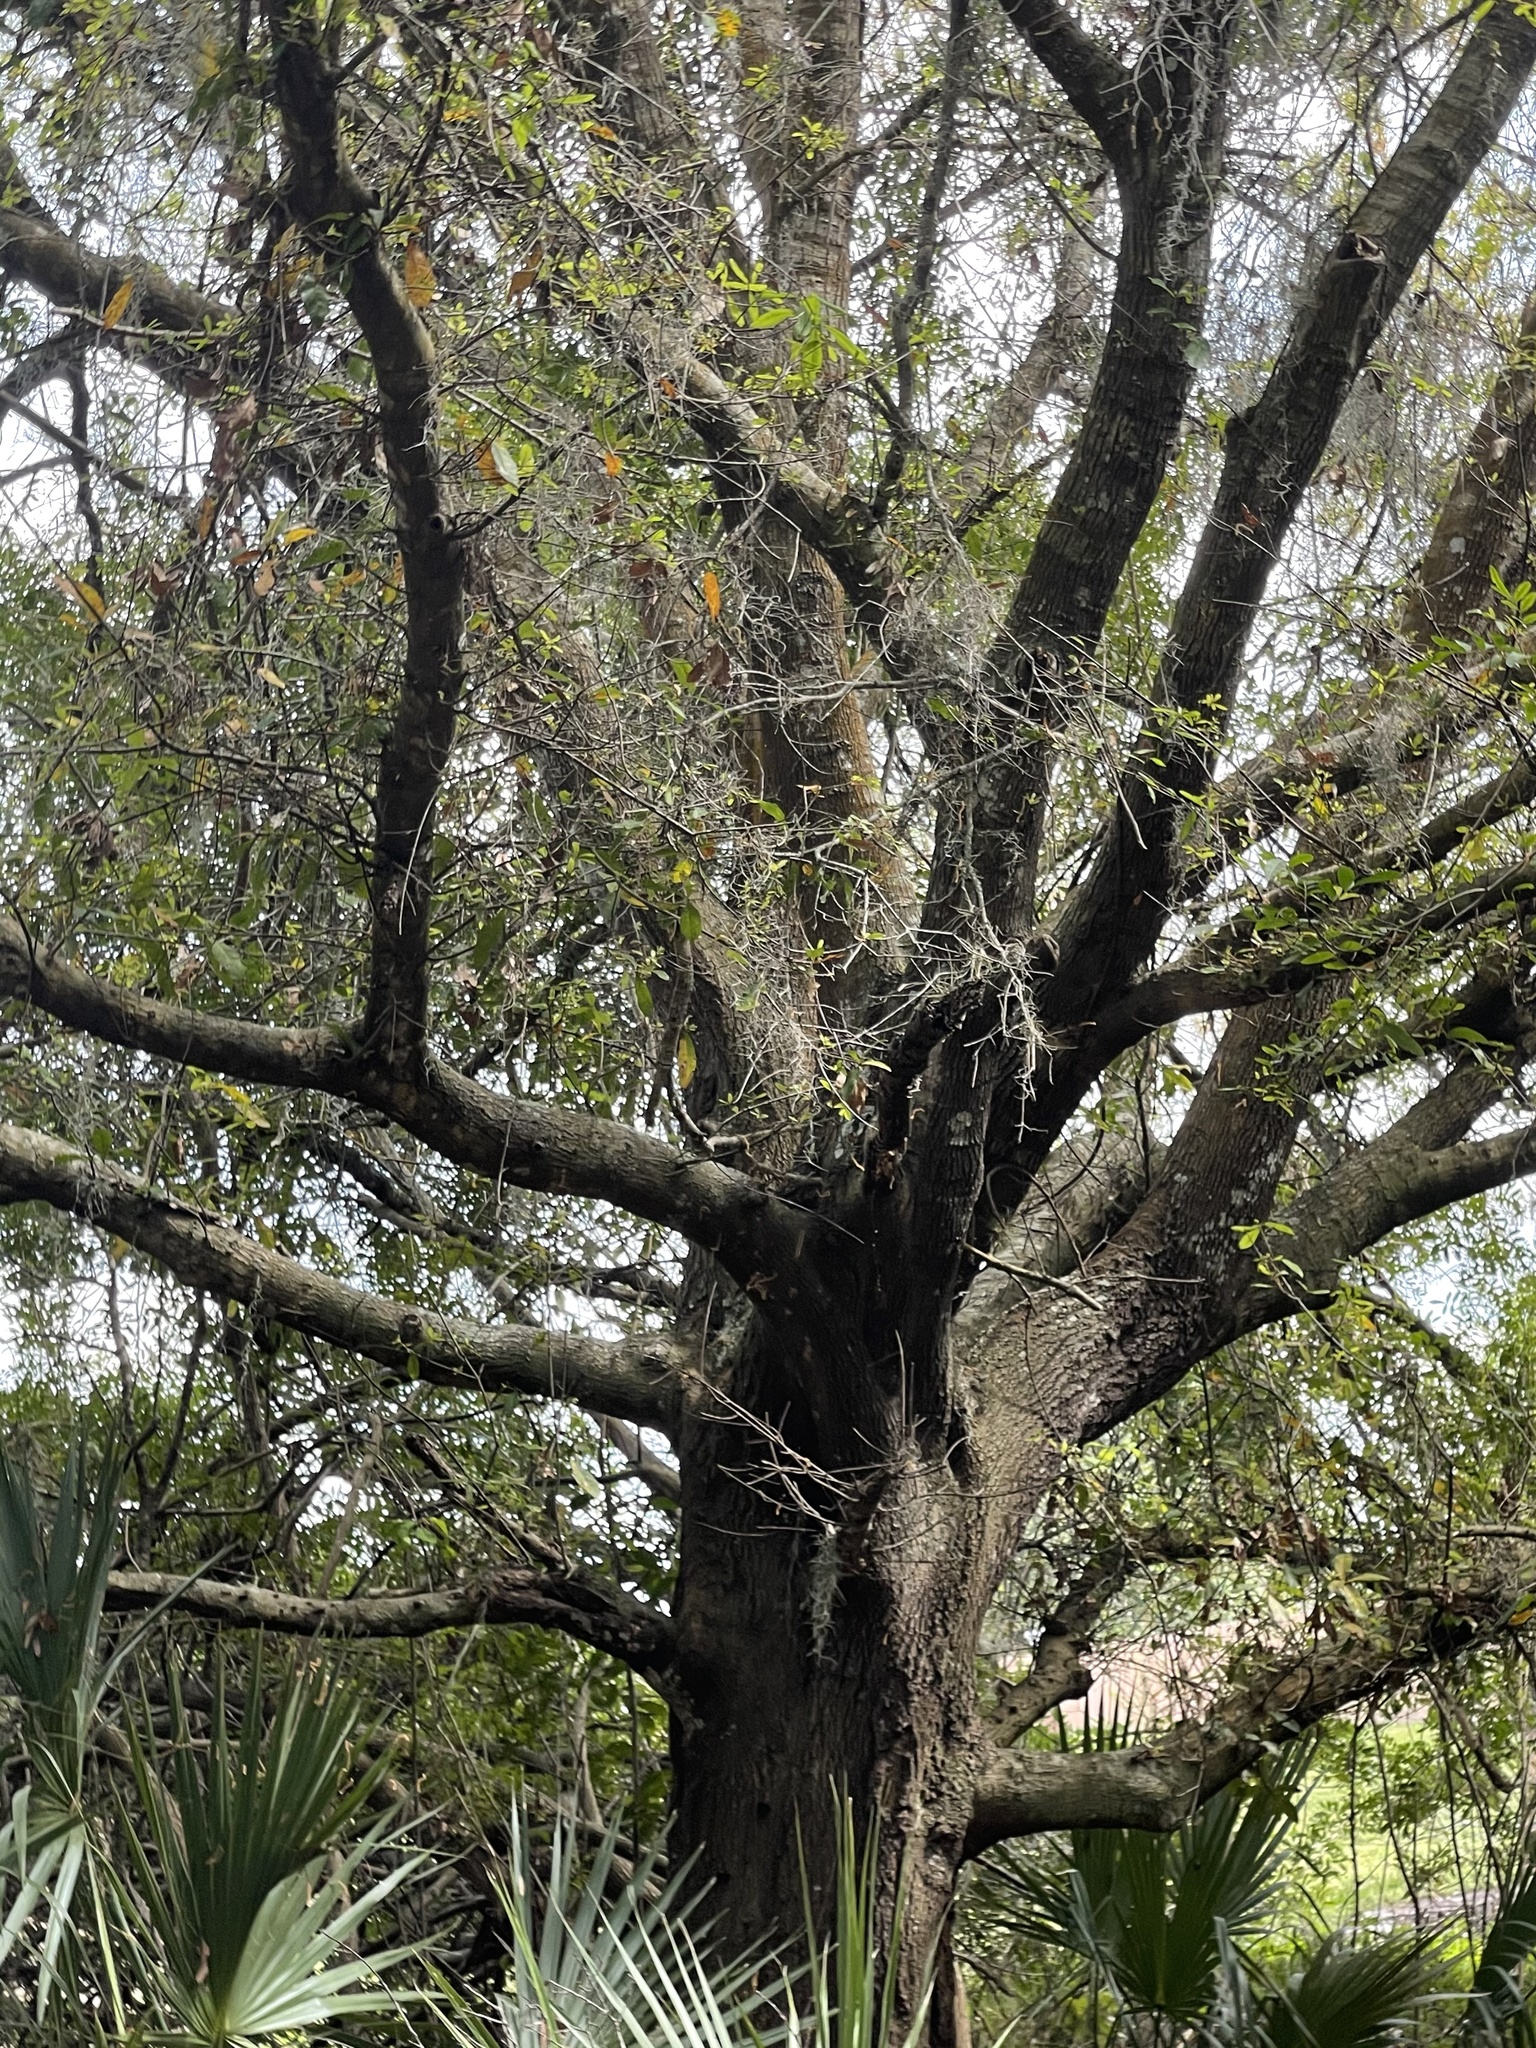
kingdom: Plantae
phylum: Tracheophyta
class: Magnoliopsida
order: Fagales
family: Fagaceae
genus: Quercus
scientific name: Quercus virginiana
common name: Southern live oak
